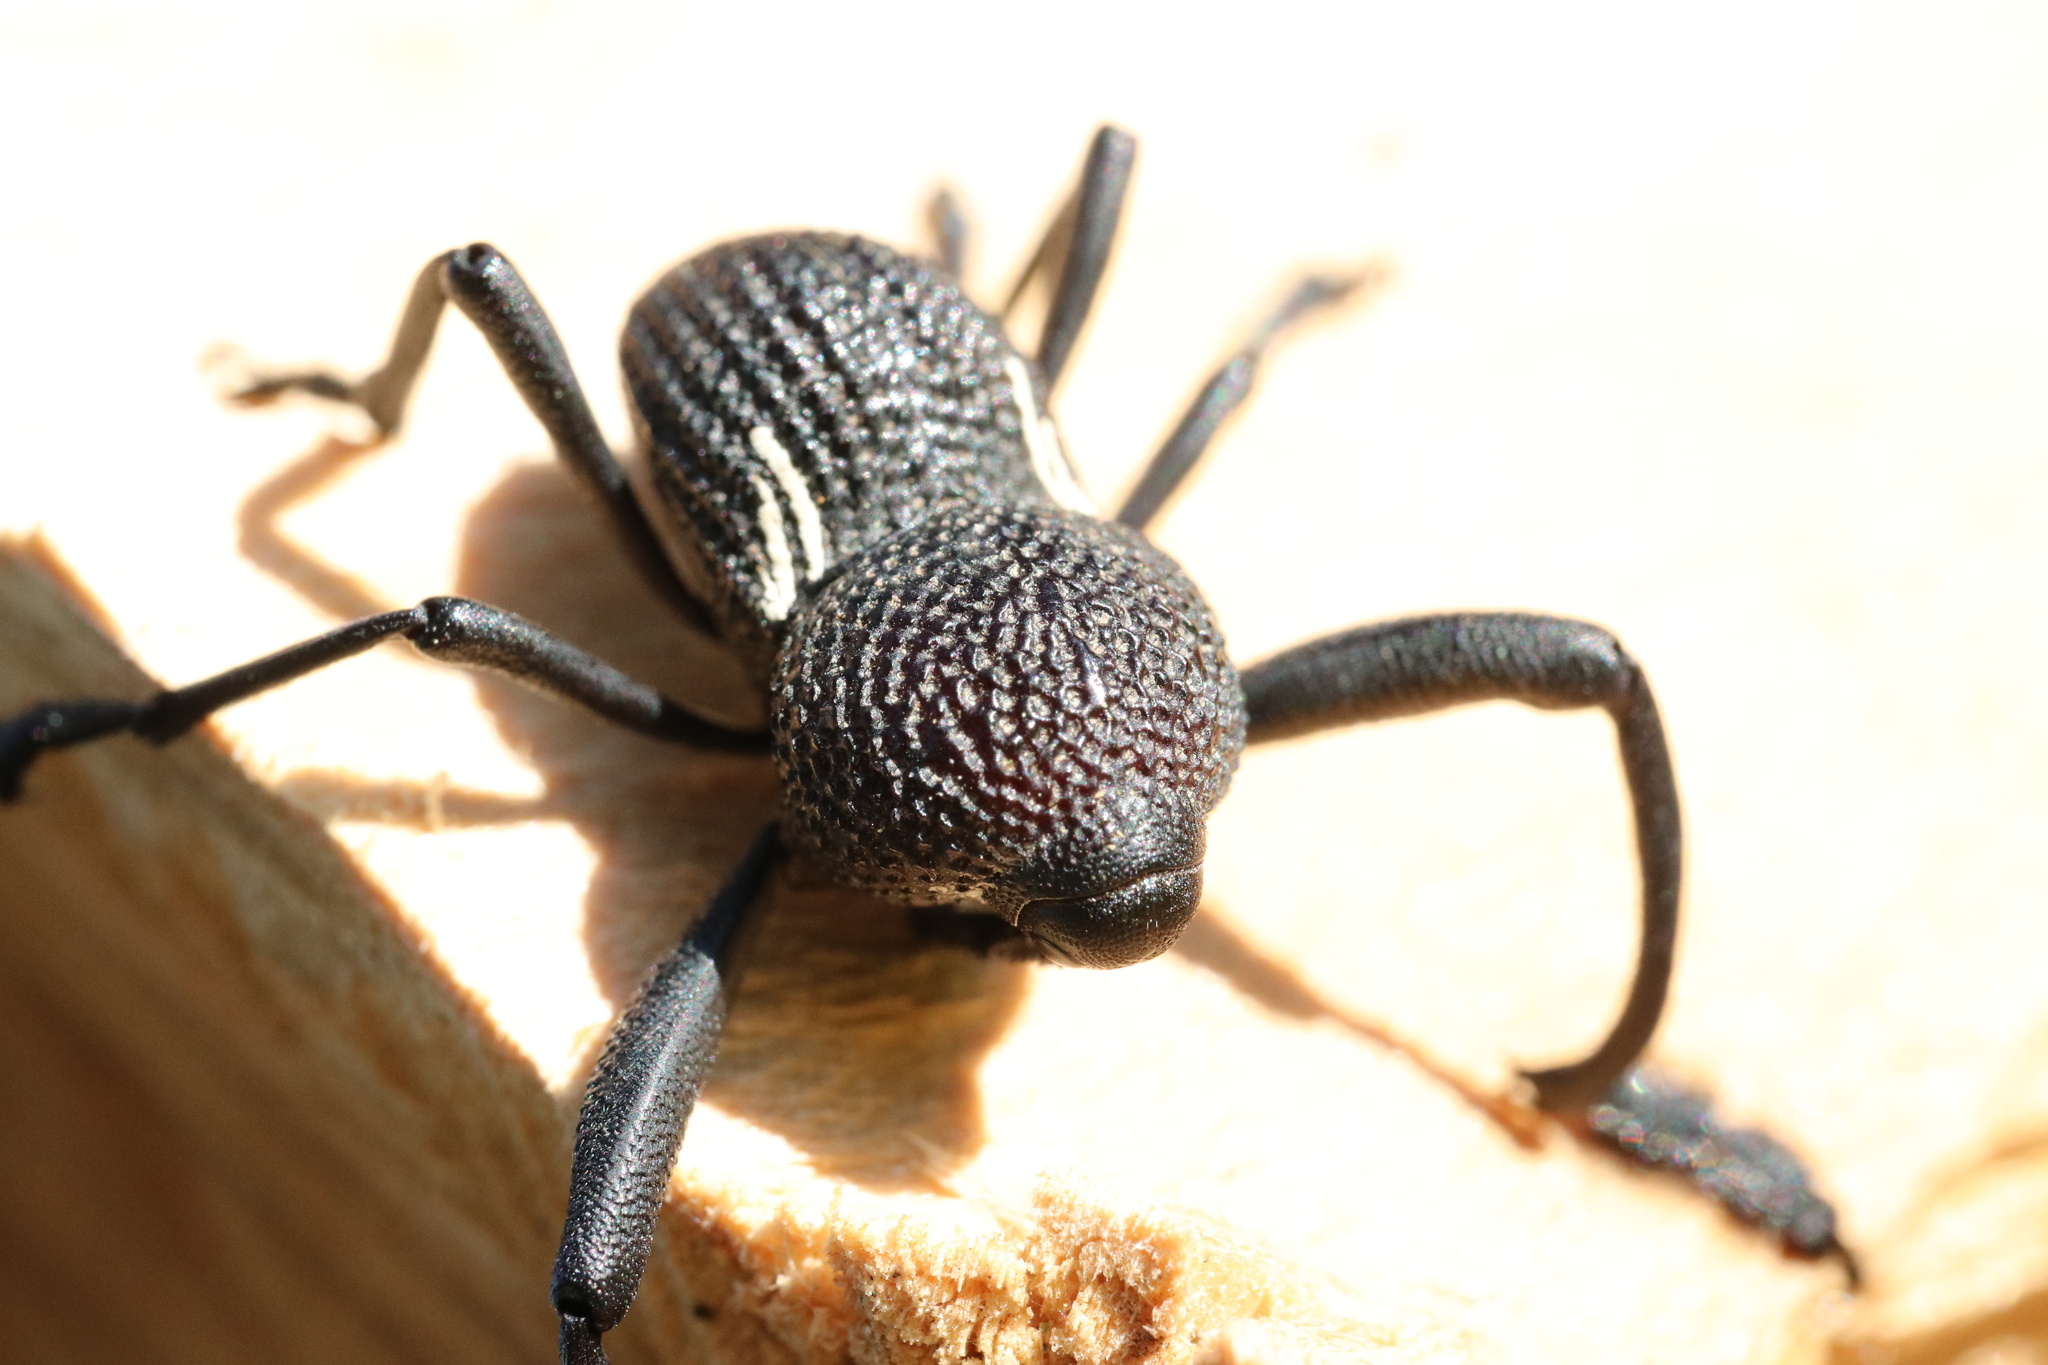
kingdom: Animalia
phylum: Arthropoda
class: Insecta
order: Coleoptera
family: Curculionidae
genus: Rhyephenes
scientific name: Rhyephenes humeralis
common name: Araè±ita chilena del pino
